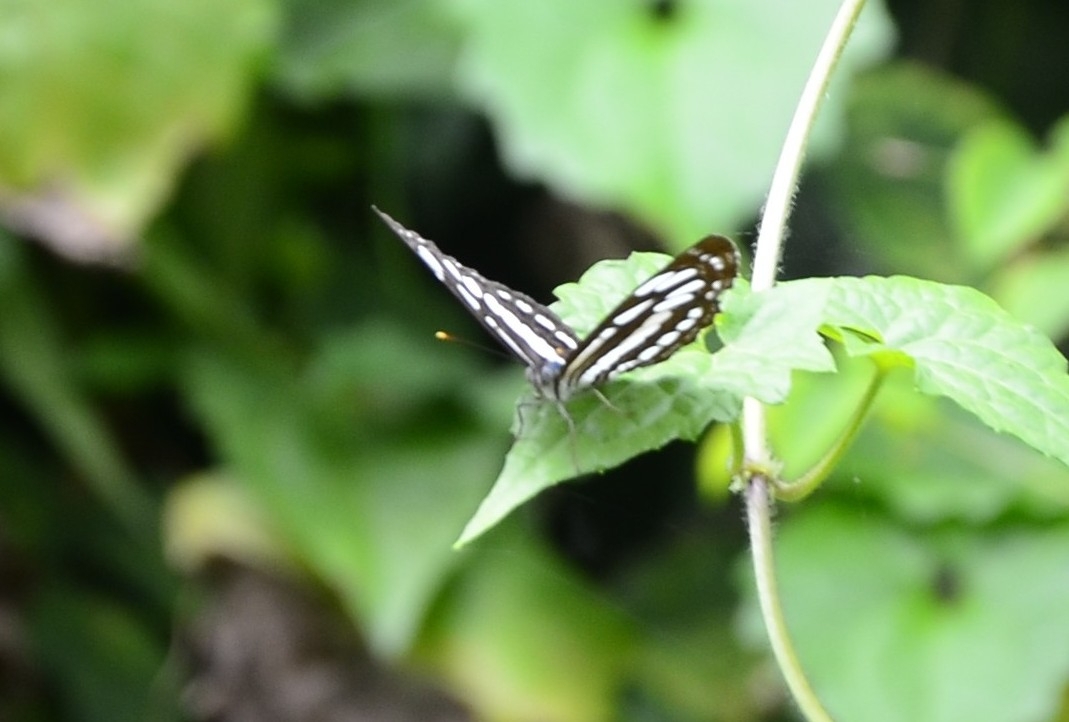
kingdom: Animalia
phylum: Arthropoda
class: Insecta
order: Lepidoptera
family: Nymphalidae
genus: Neptis
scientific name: Neptis hylas
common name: Common sailer
